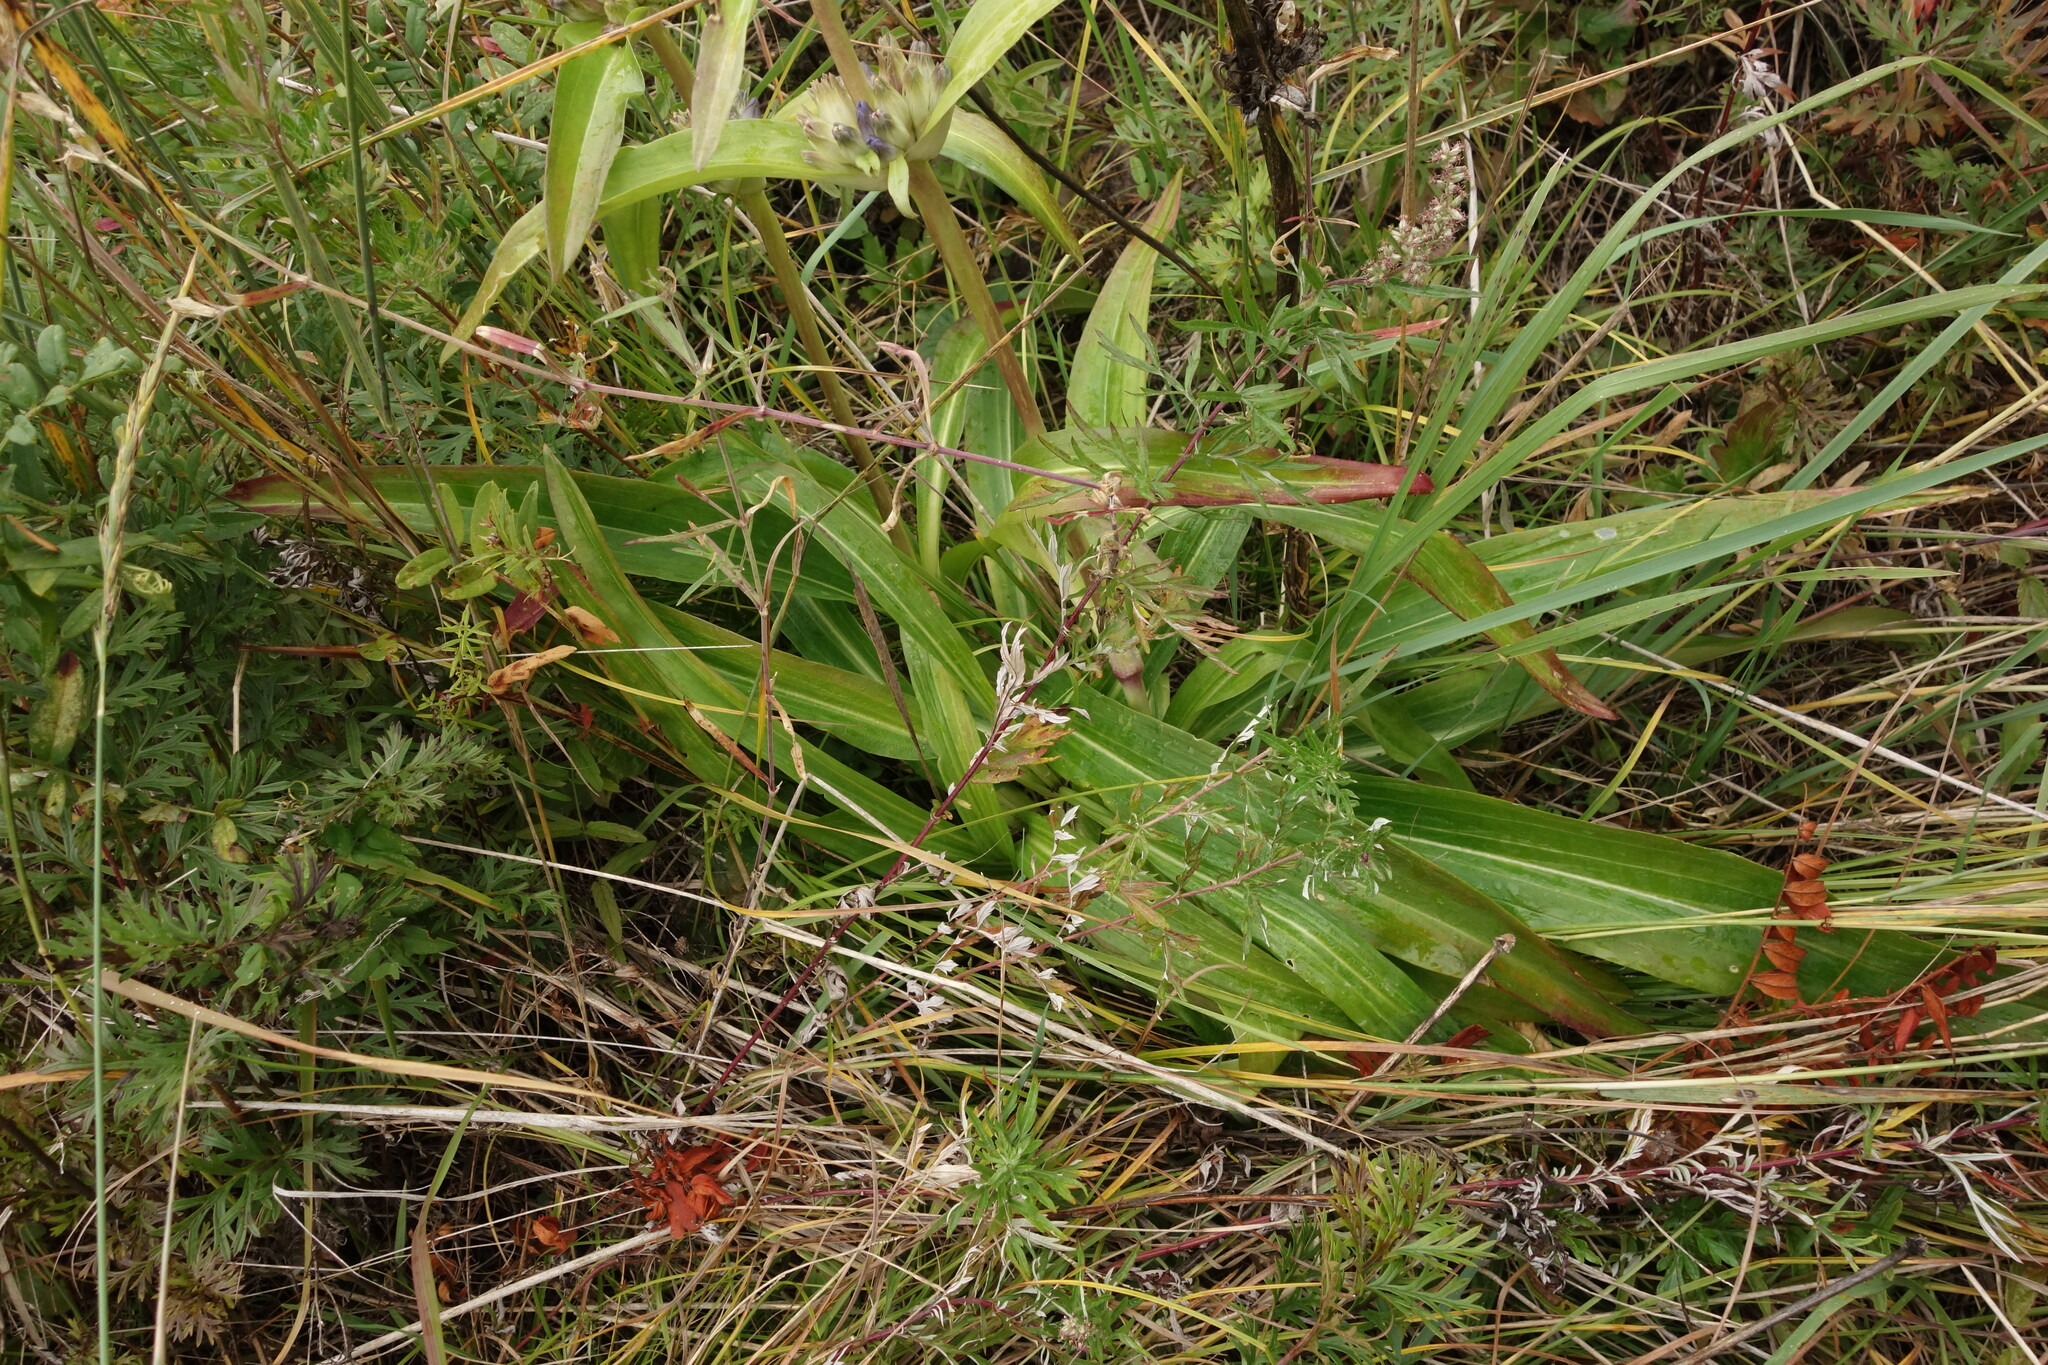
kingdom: Plantae
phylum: Tracheophyta
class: Magnoliopsida
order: Gentianales
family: Gentianaceae
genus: Gentiana
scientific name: Gentiana macrophylla
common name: Large-leaf gentian
